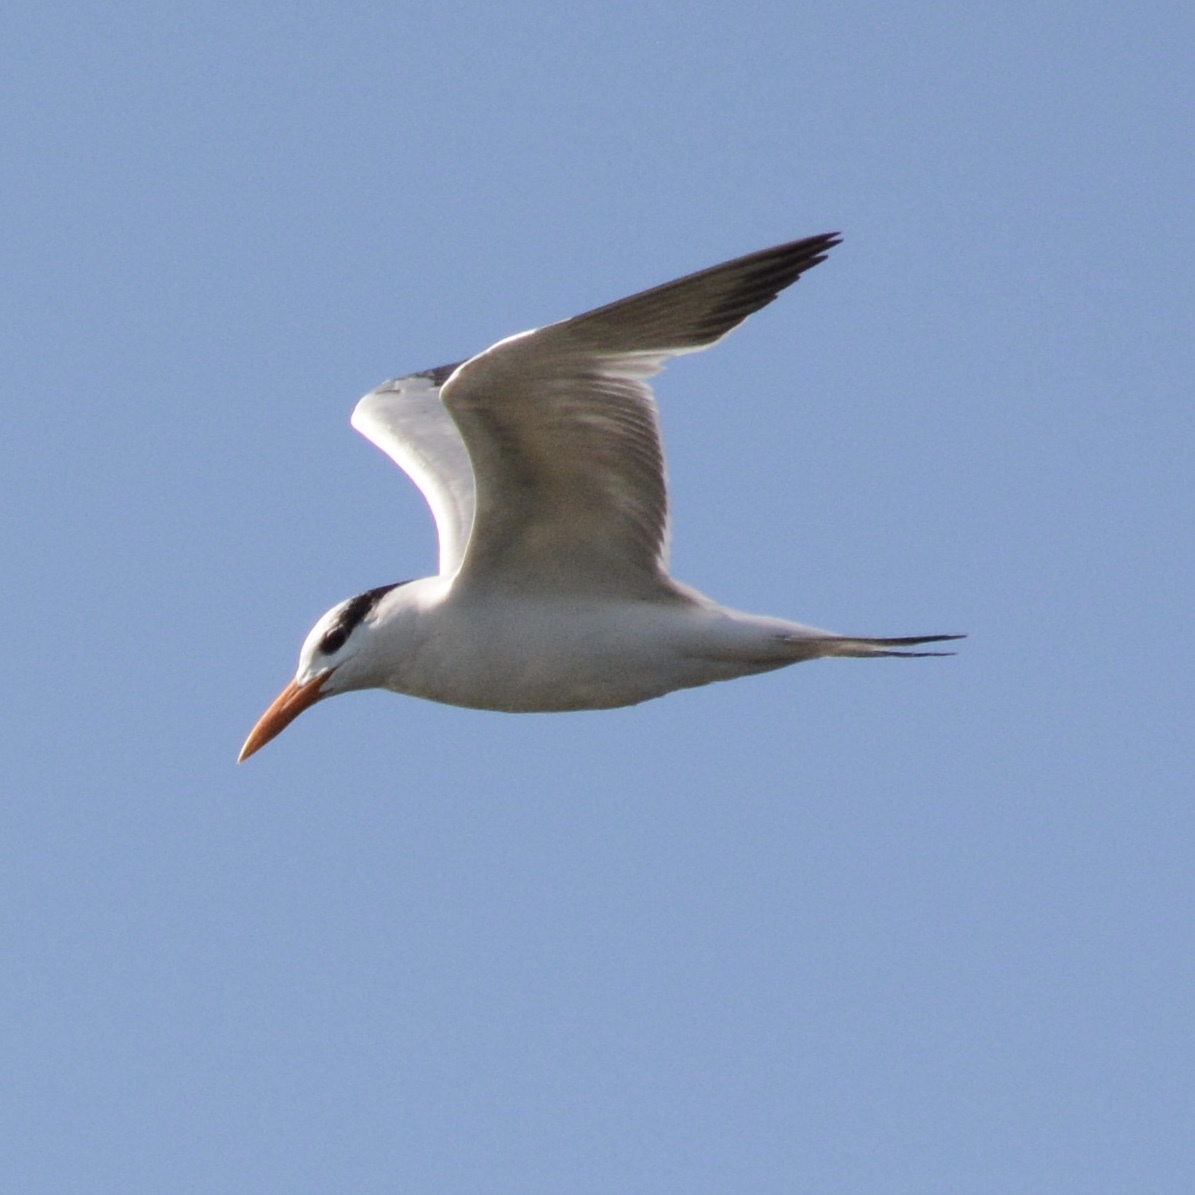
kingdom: Animalia
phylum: Chordata
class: Aves
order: Charadriiformes
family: Laridae
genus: Thalasseus
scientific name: Thalasseus maximus
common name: Royal tern
